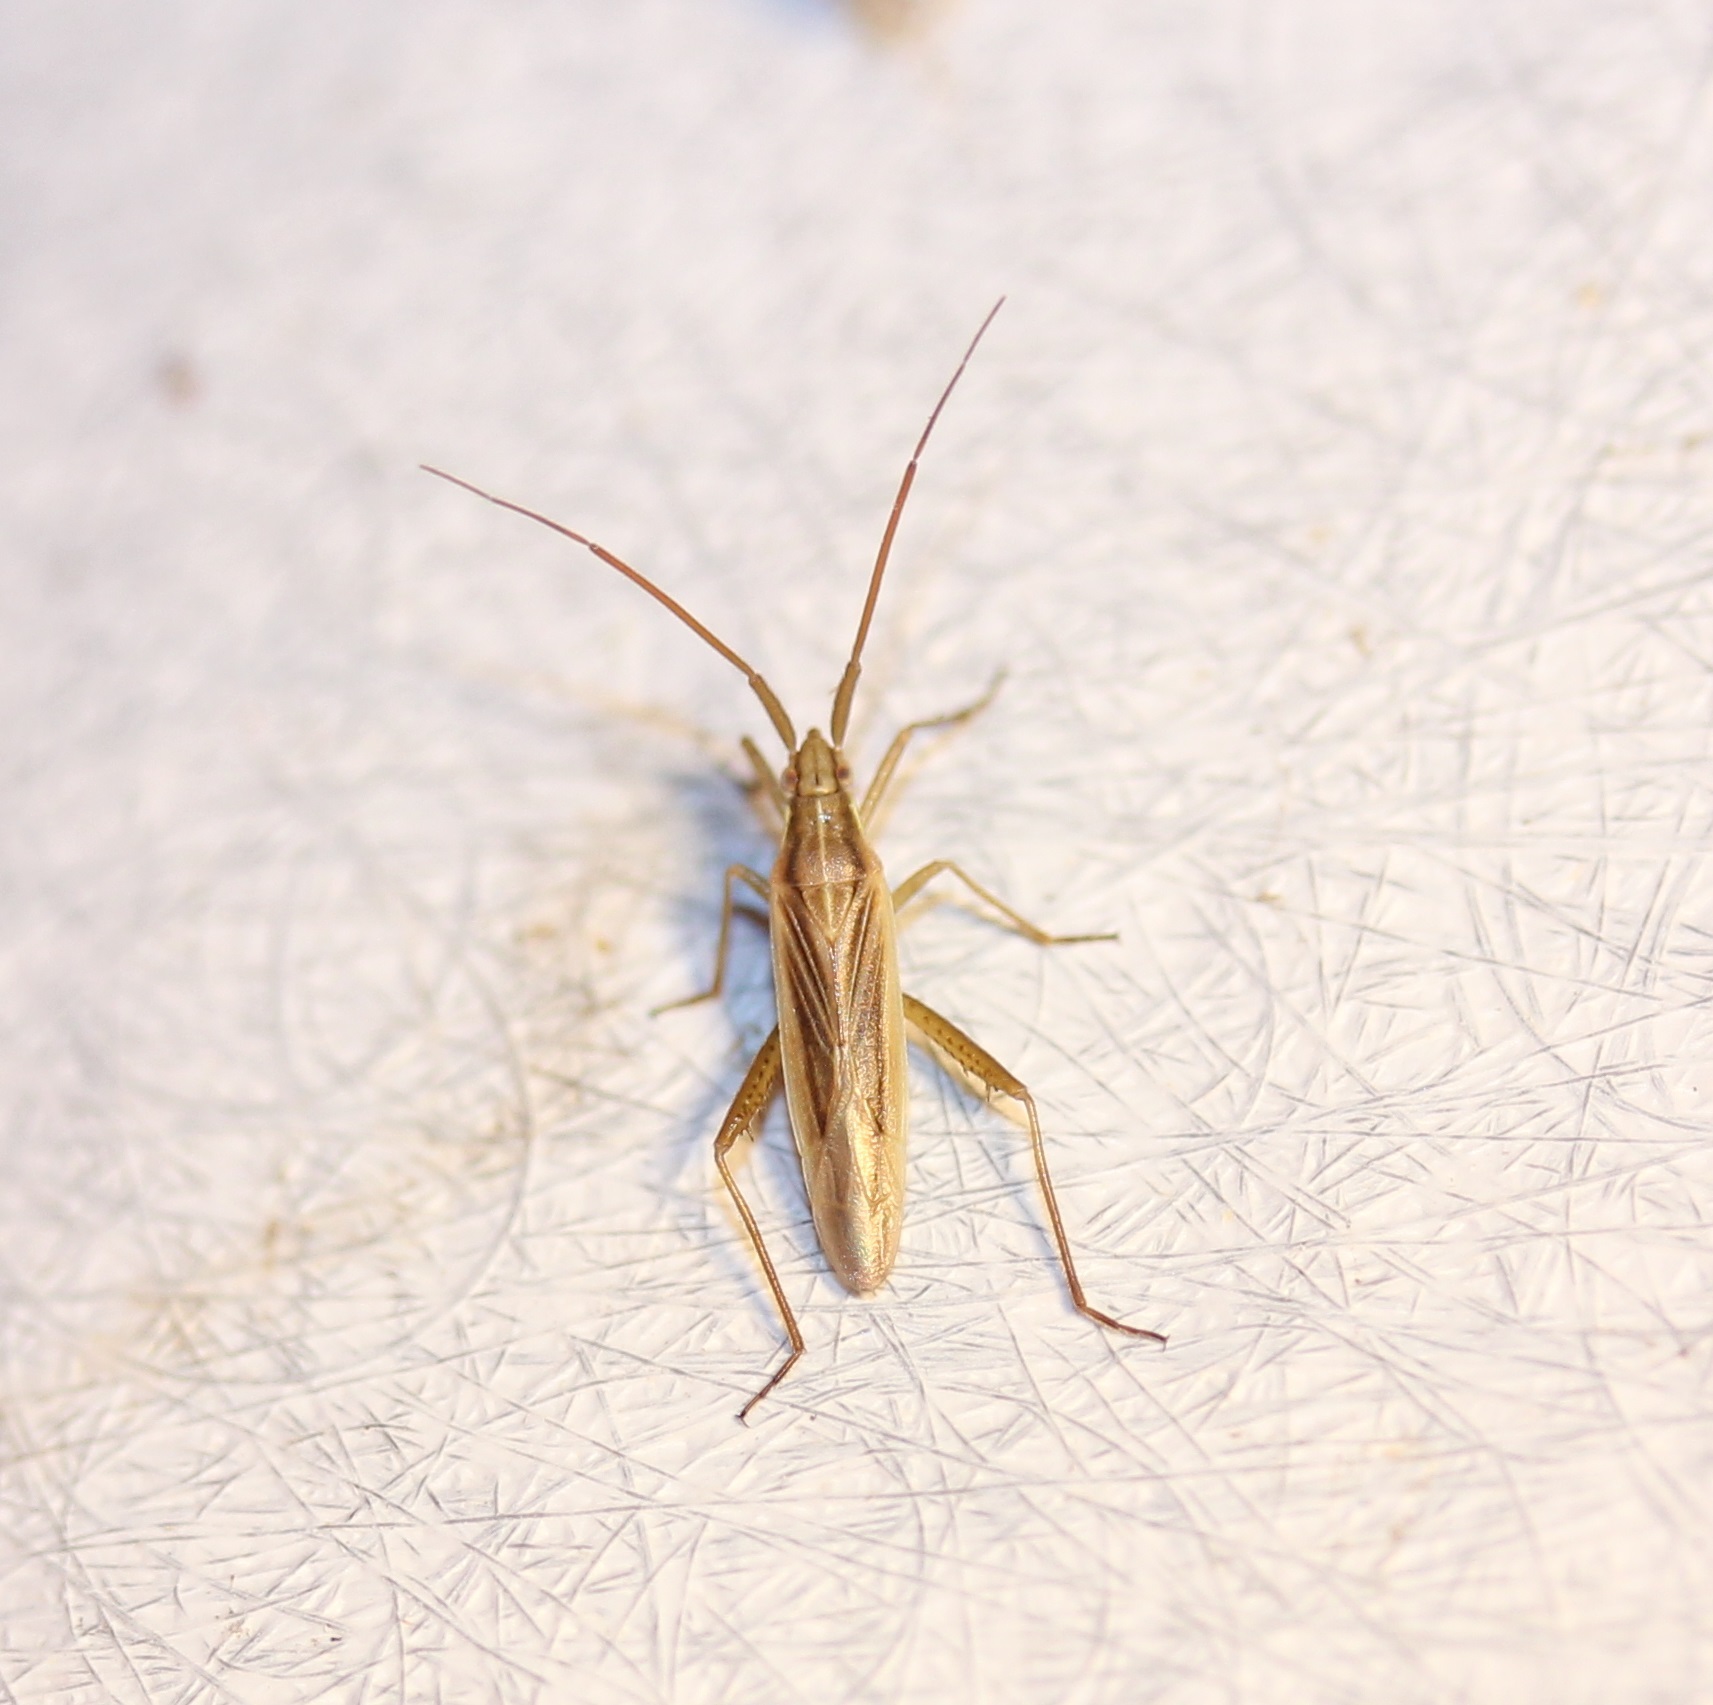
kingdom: Animalia
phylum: Arthropoda
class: Insecta
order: Hemiptera
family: Miridae
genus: Stenodema
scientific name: Stenodema trispinosa
